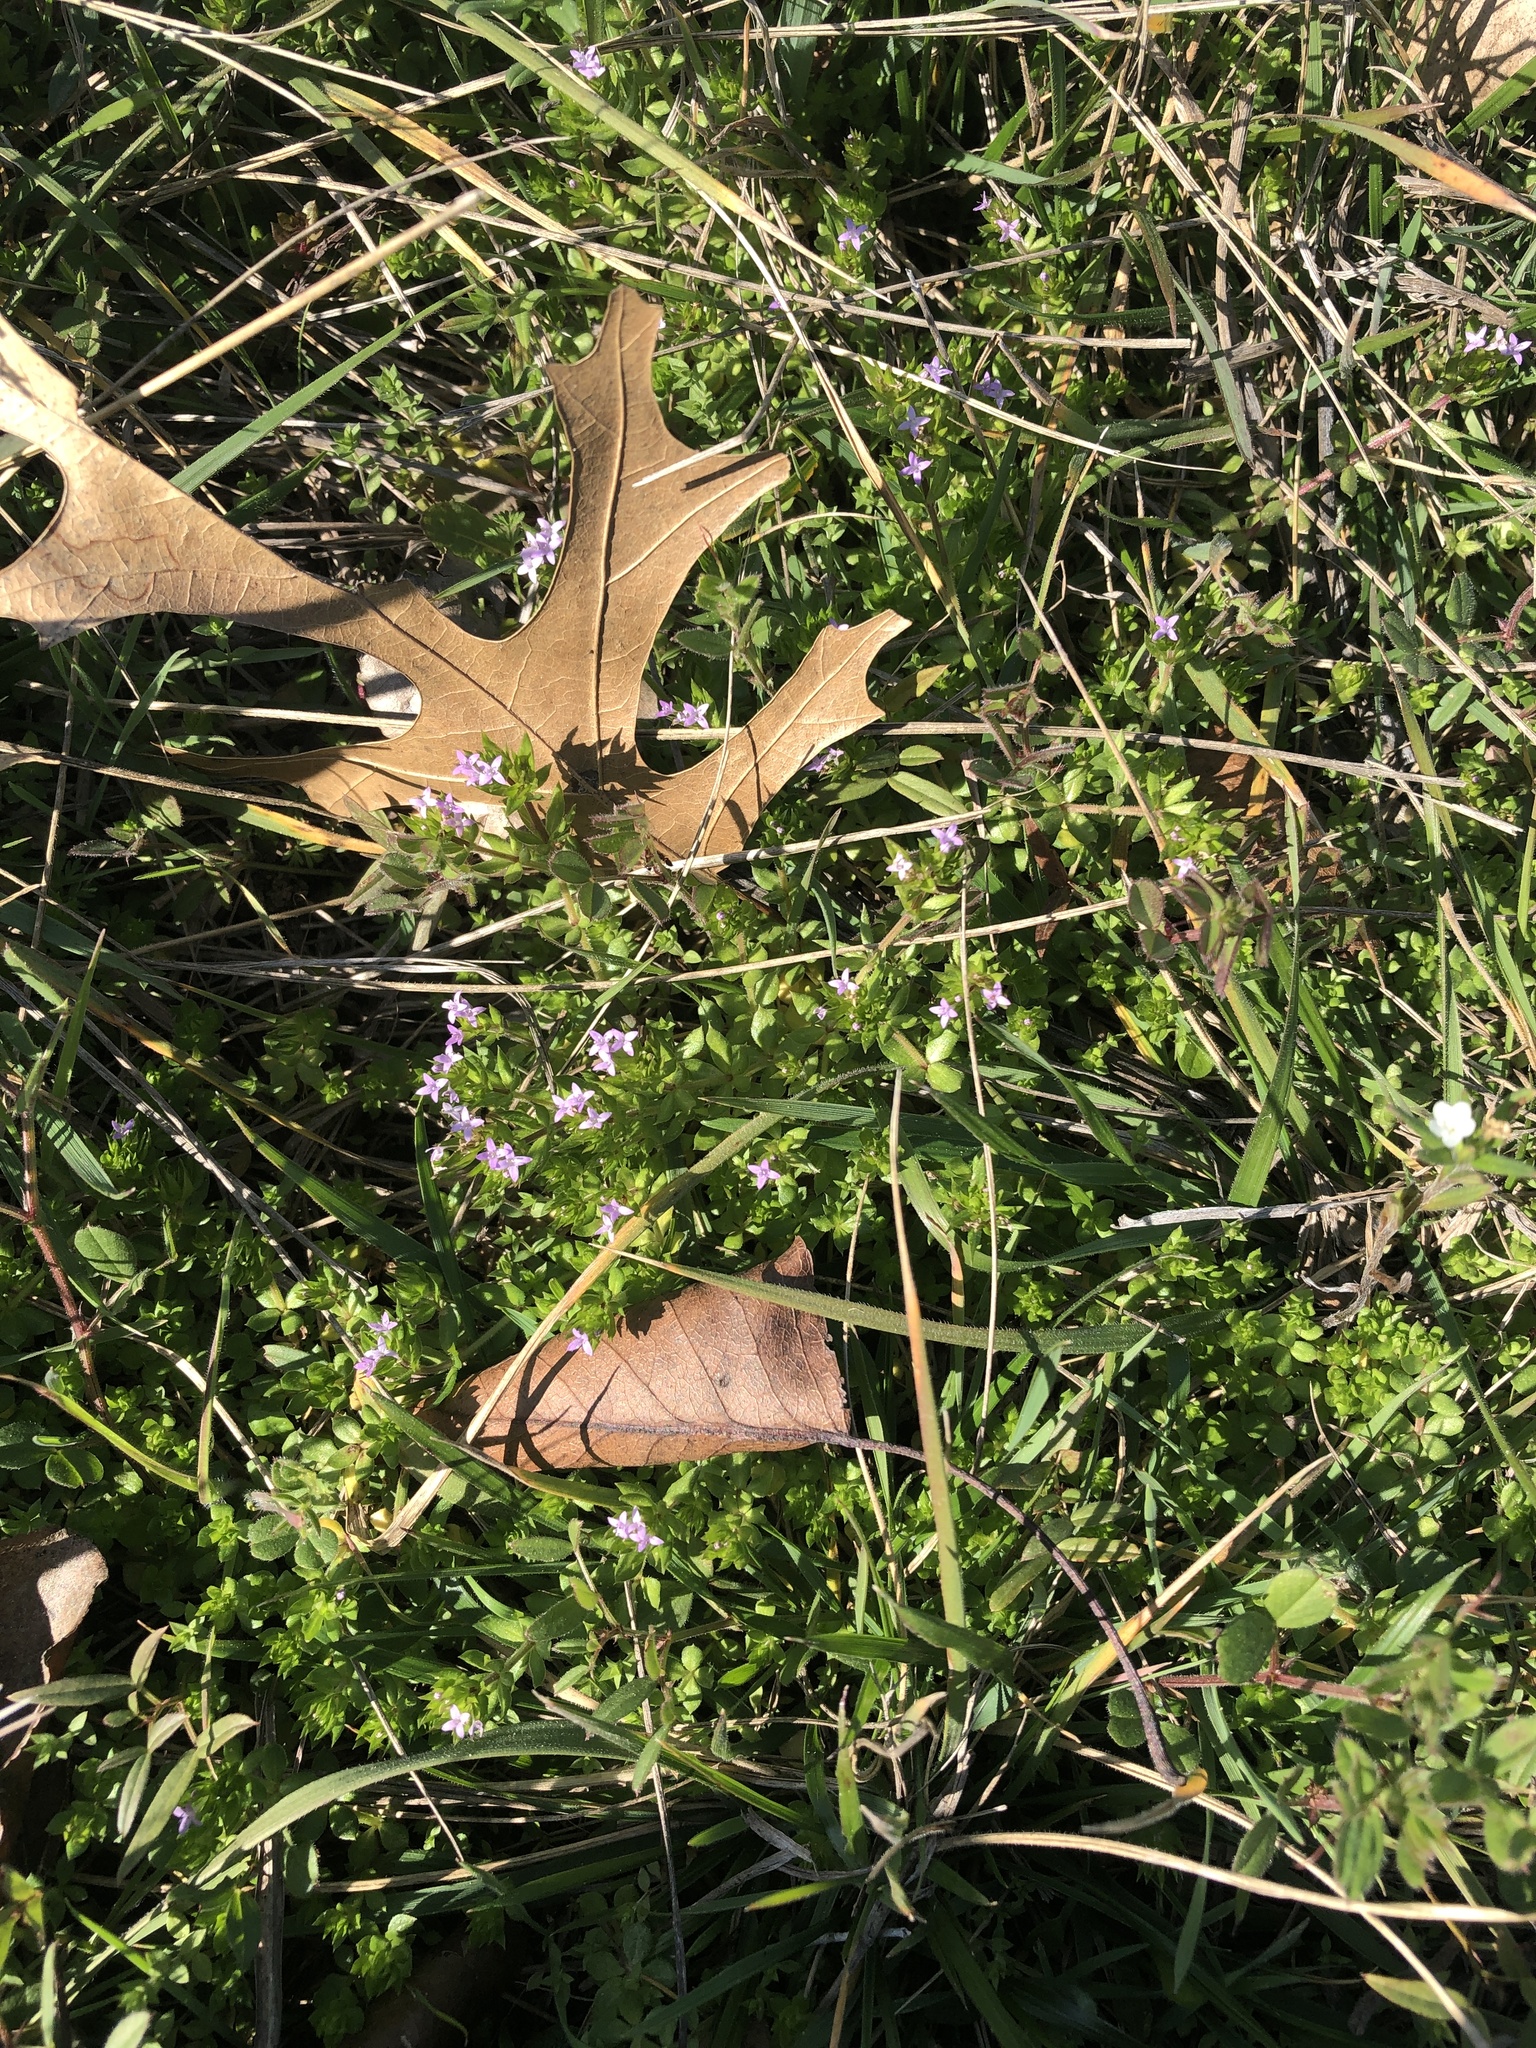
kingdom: Plantae
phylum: Tracheophyta
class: Magnoliopsida
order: Gentianales
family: Rubiaceae
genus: Sherardia
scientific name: Sherardia arvensis
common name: Field madder
